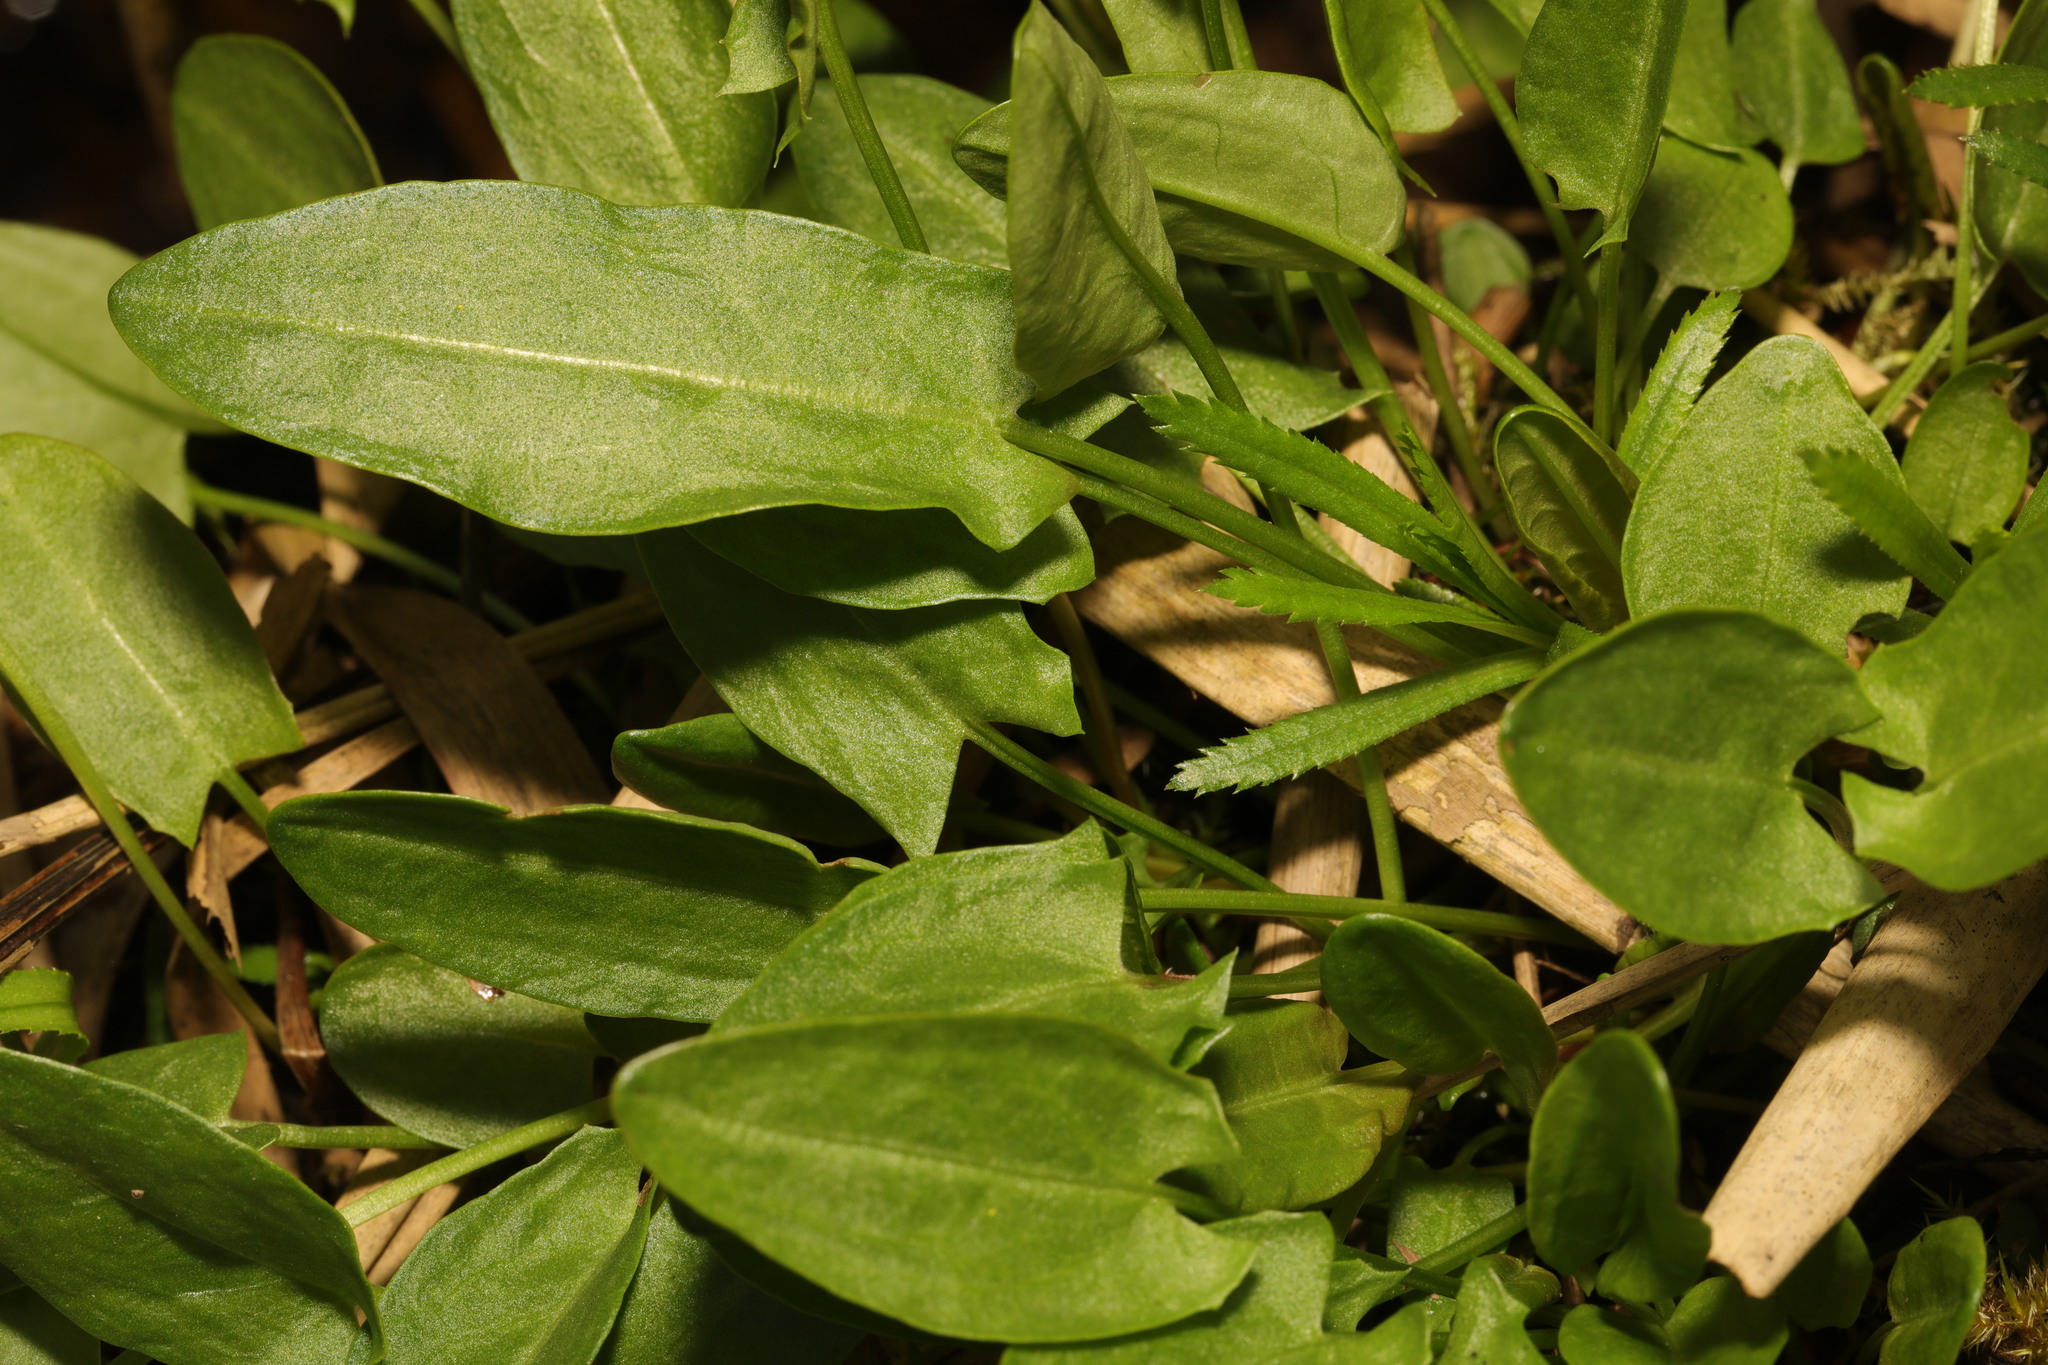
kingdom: Plantae
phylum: Tracheophyta
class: Magnoliopsida
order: Caryophyllales
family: Polygonaceae
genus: Rumex
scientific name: Rumex acetosa
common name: Garden sorrel
